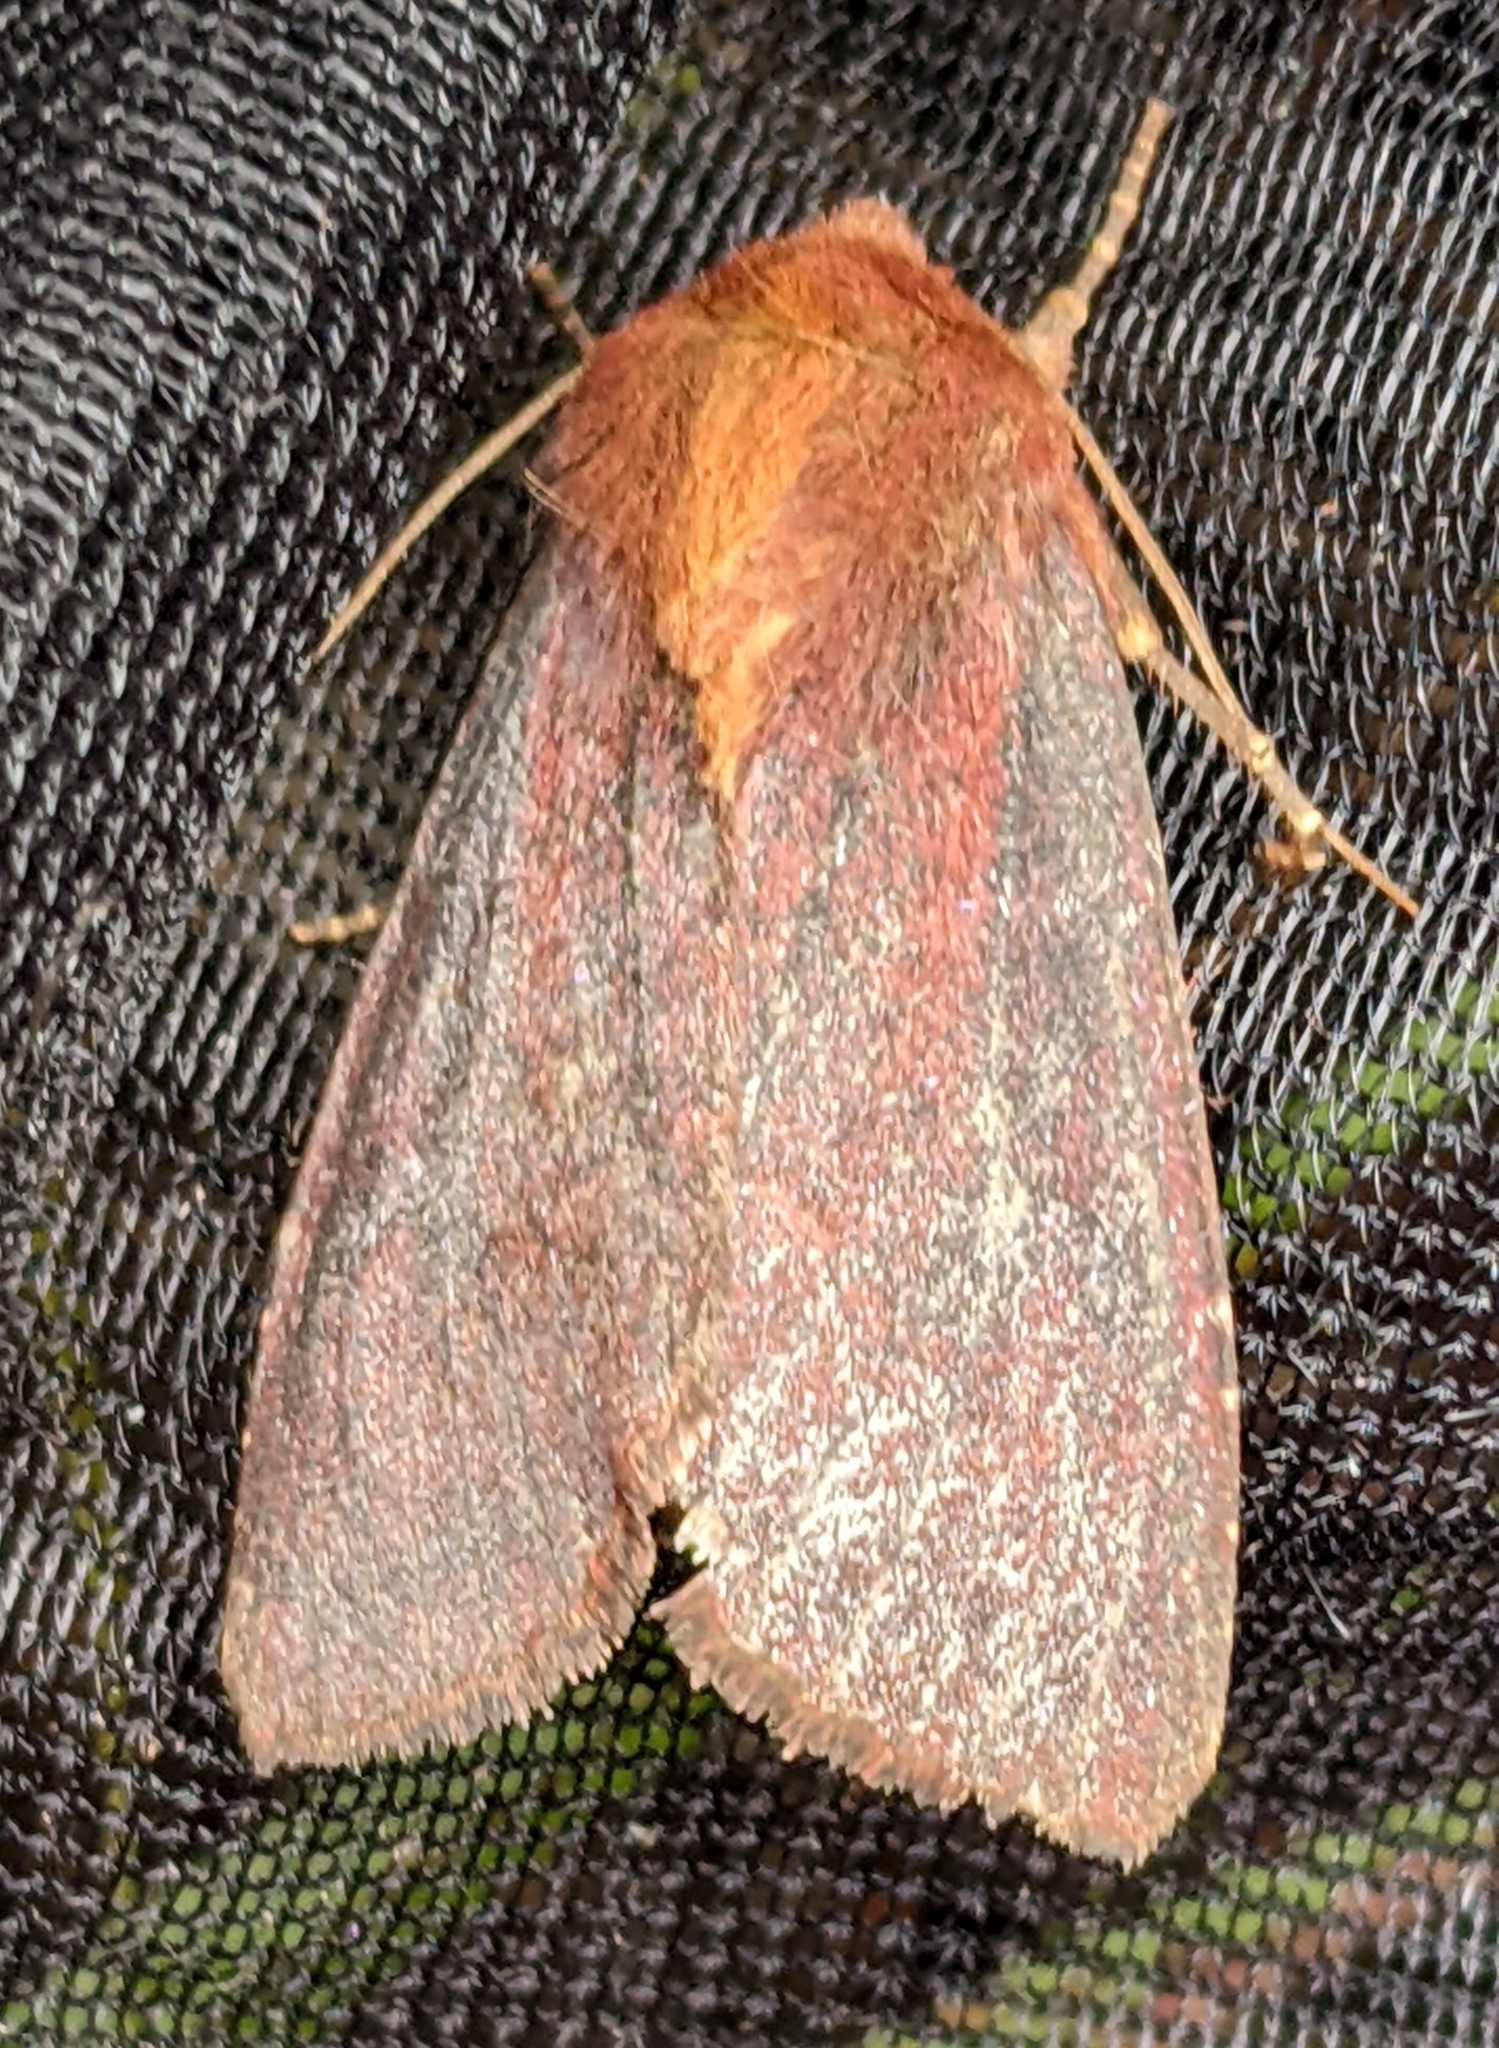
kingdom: Animalia
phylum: Arthropoda
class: Insecta
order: Lepidoptera
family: Noctuidae
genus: Sideridis
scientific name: Sideridis maryx
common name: Maroonwing moth
